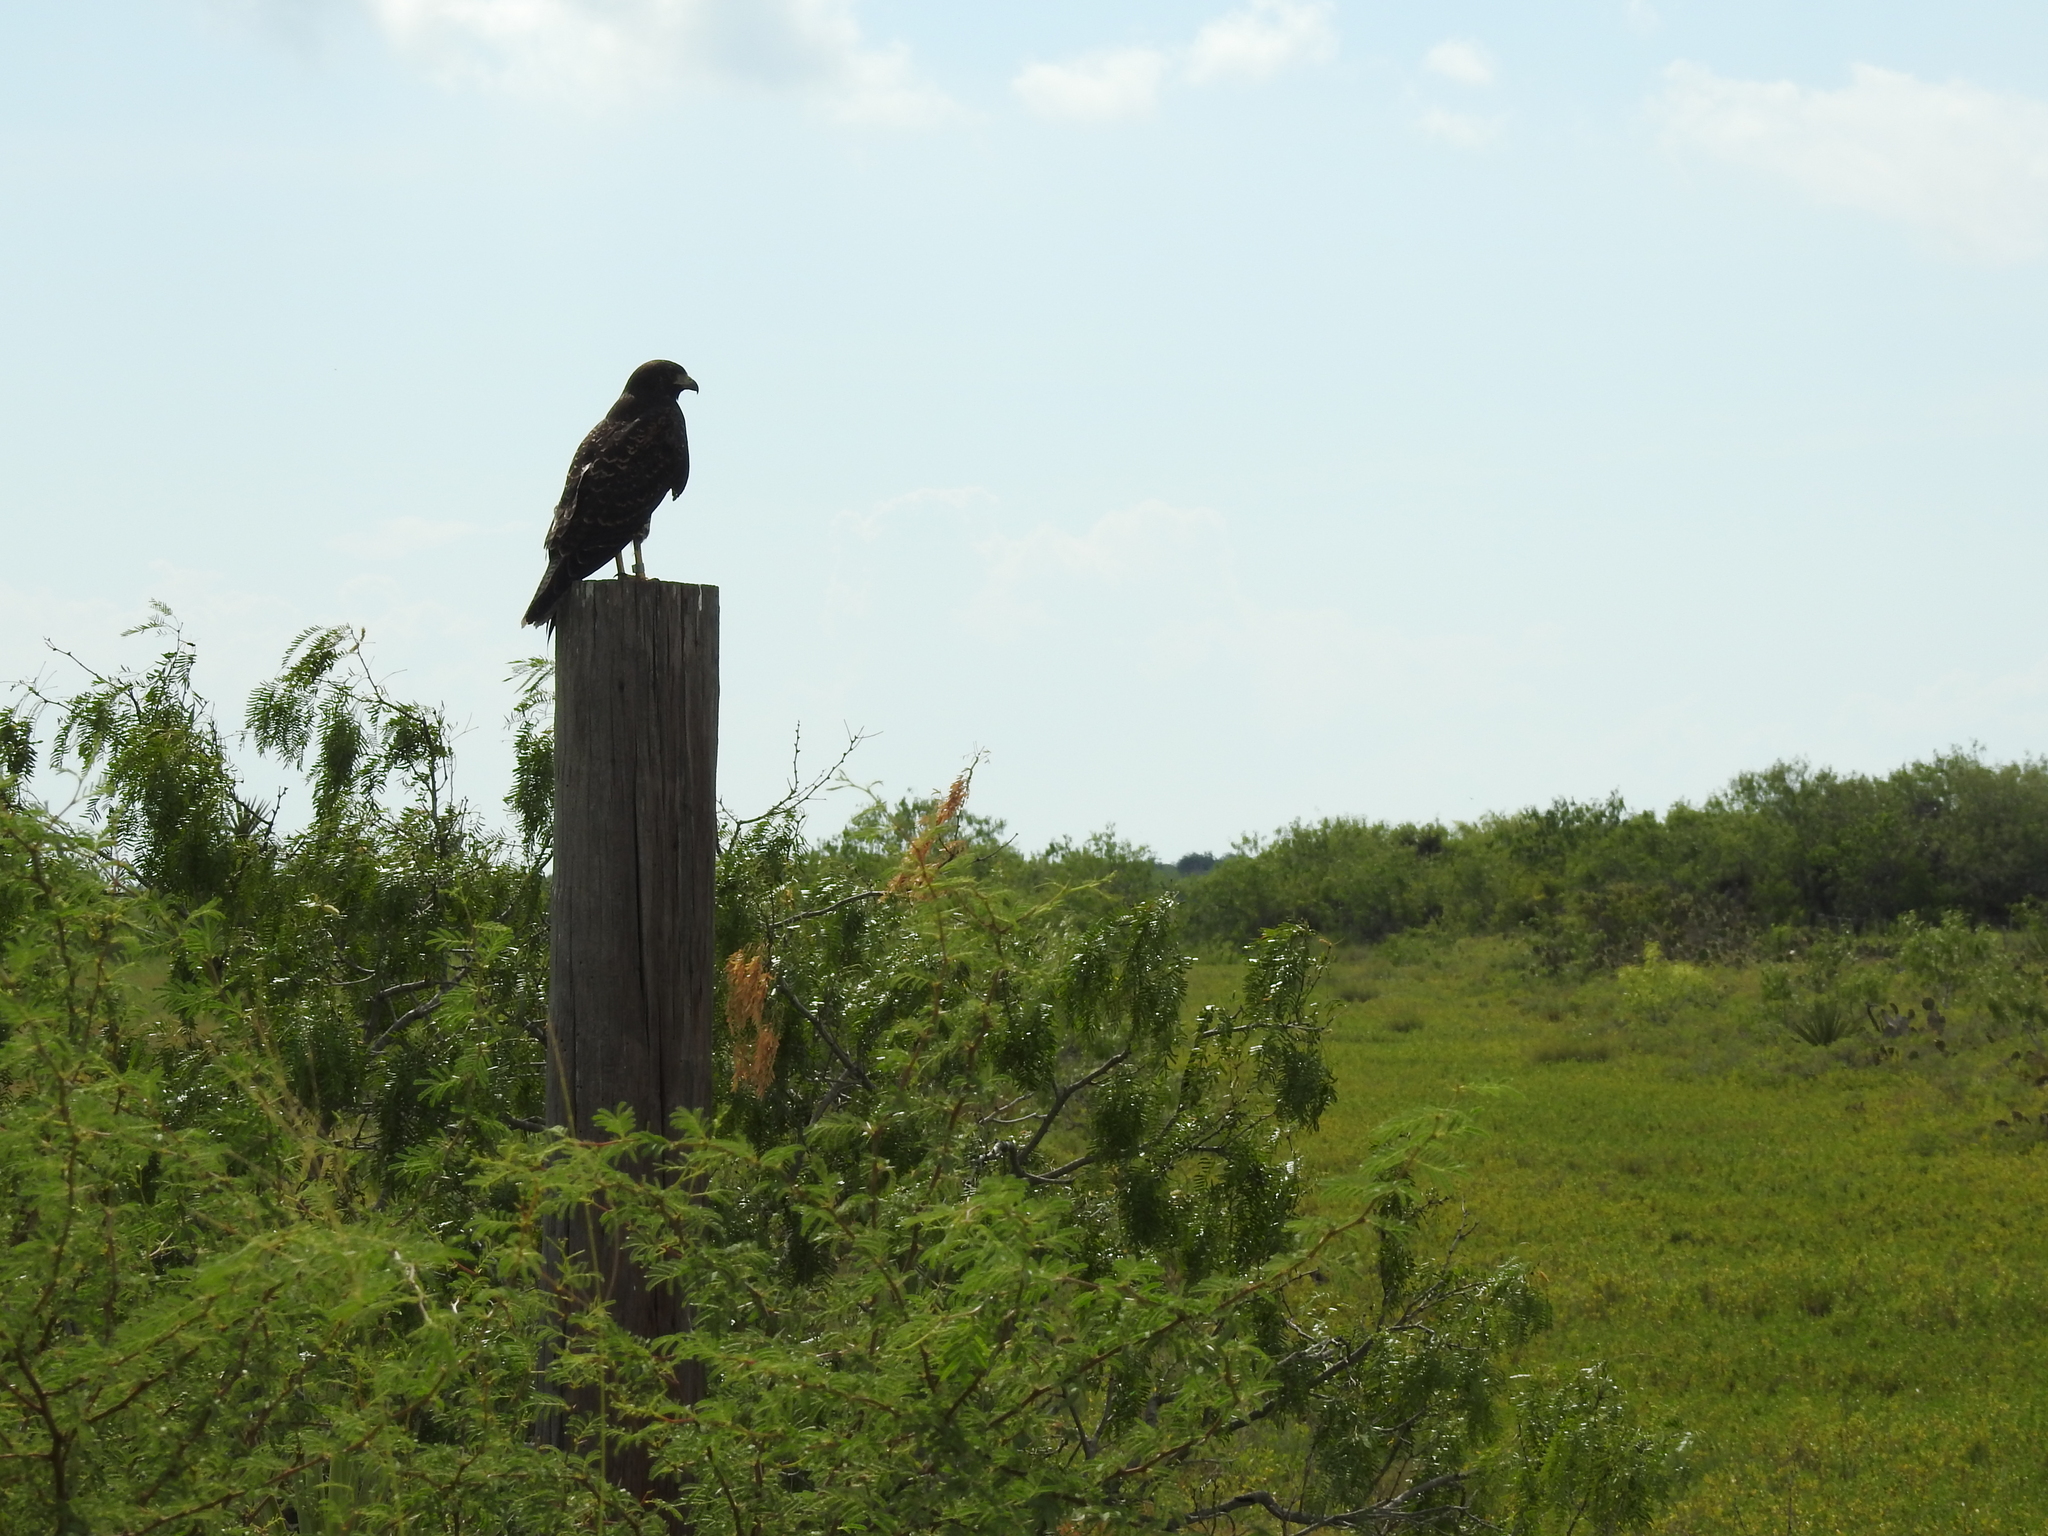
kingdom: Animalia
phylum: Chordata
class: Aves
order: Accipitriformes
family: Accipitridae
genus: Buteo
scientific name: Buteo albicaudatus
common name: White-tailed hawk
